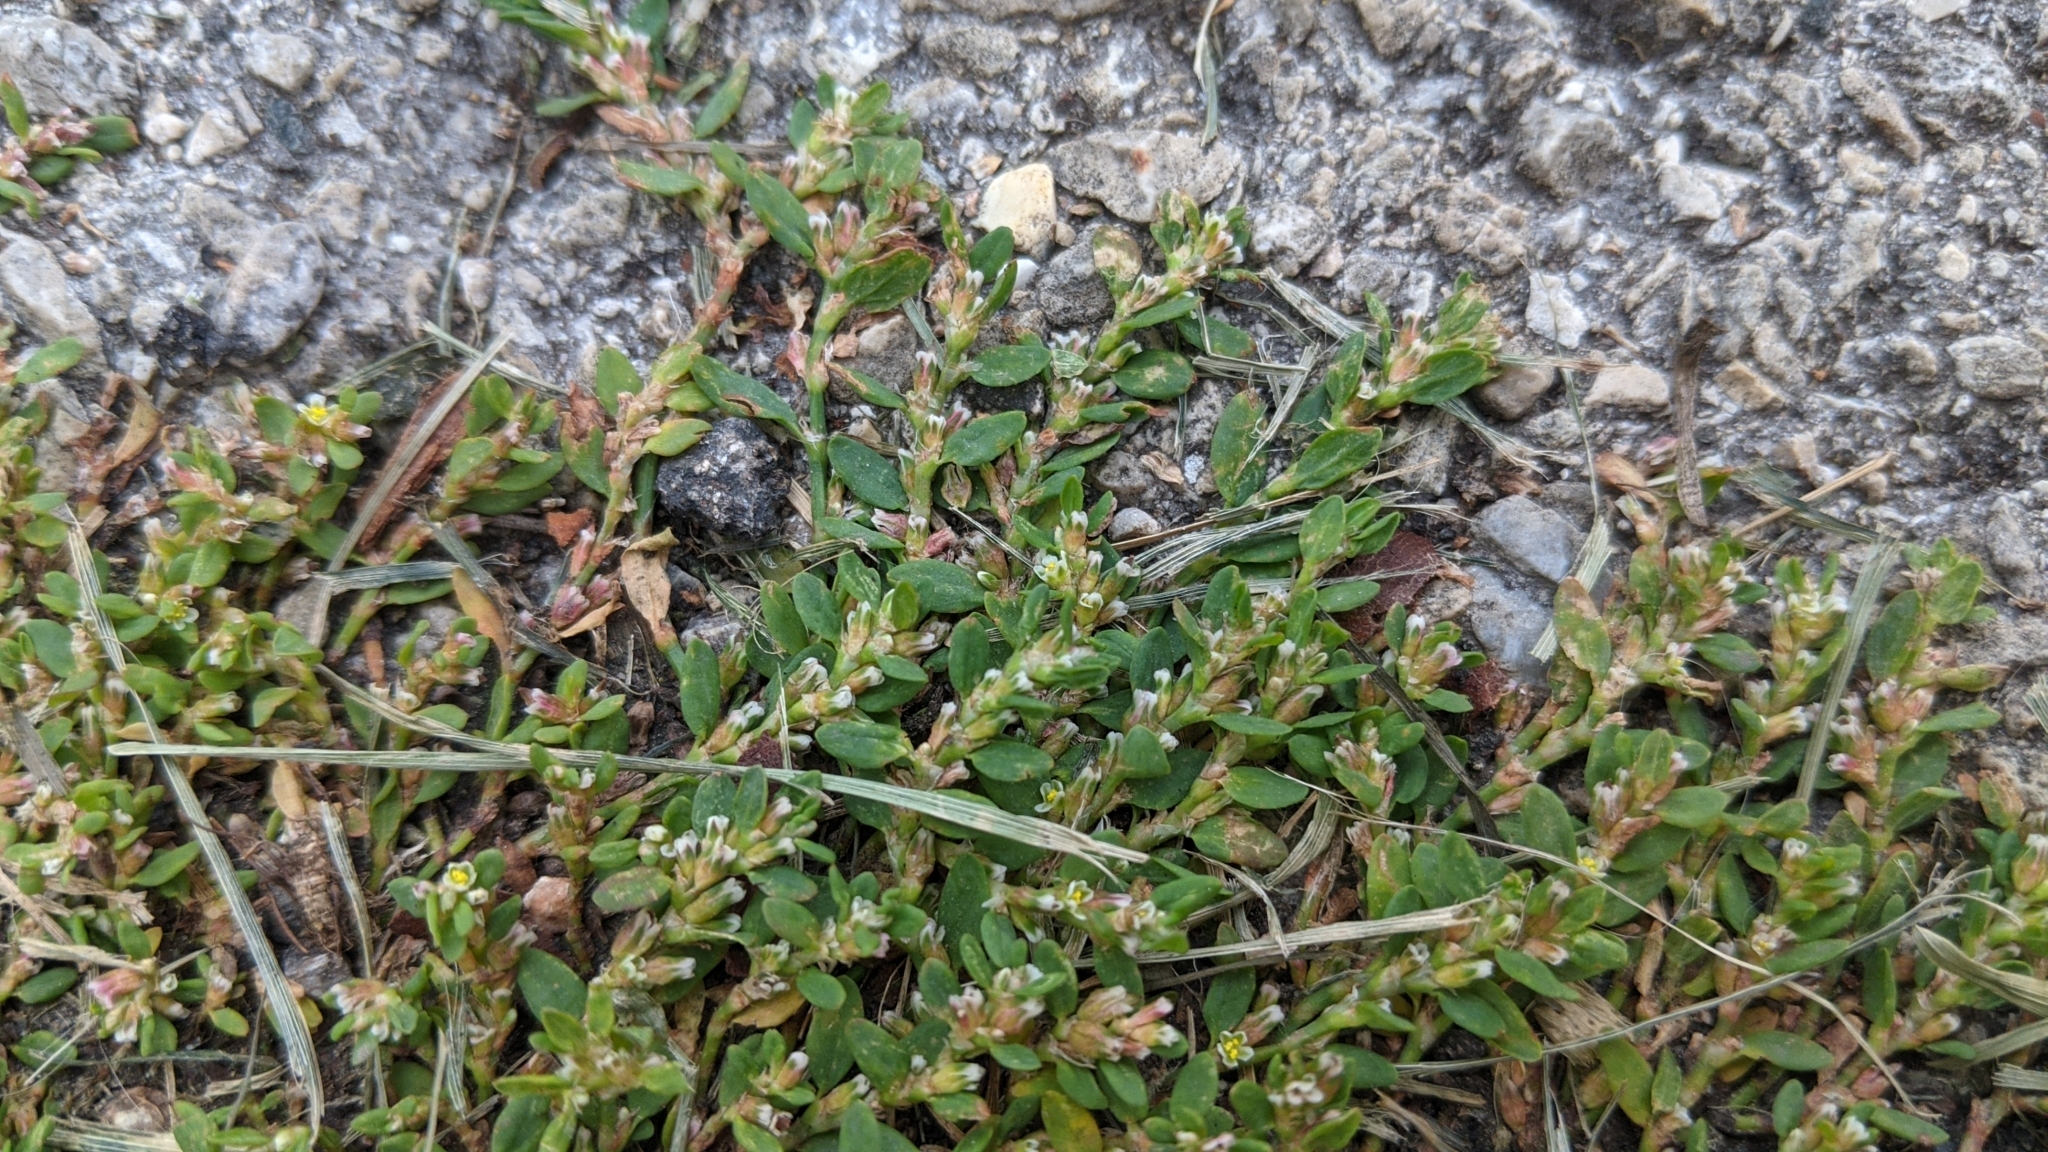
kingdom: Plantae
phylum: Tracheophyta
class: Magnoliopsida
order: Caryophyllales
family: Polygonaceae
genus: Polygonum
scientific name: Polygonum aviculare
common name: Prostrate knotweed
